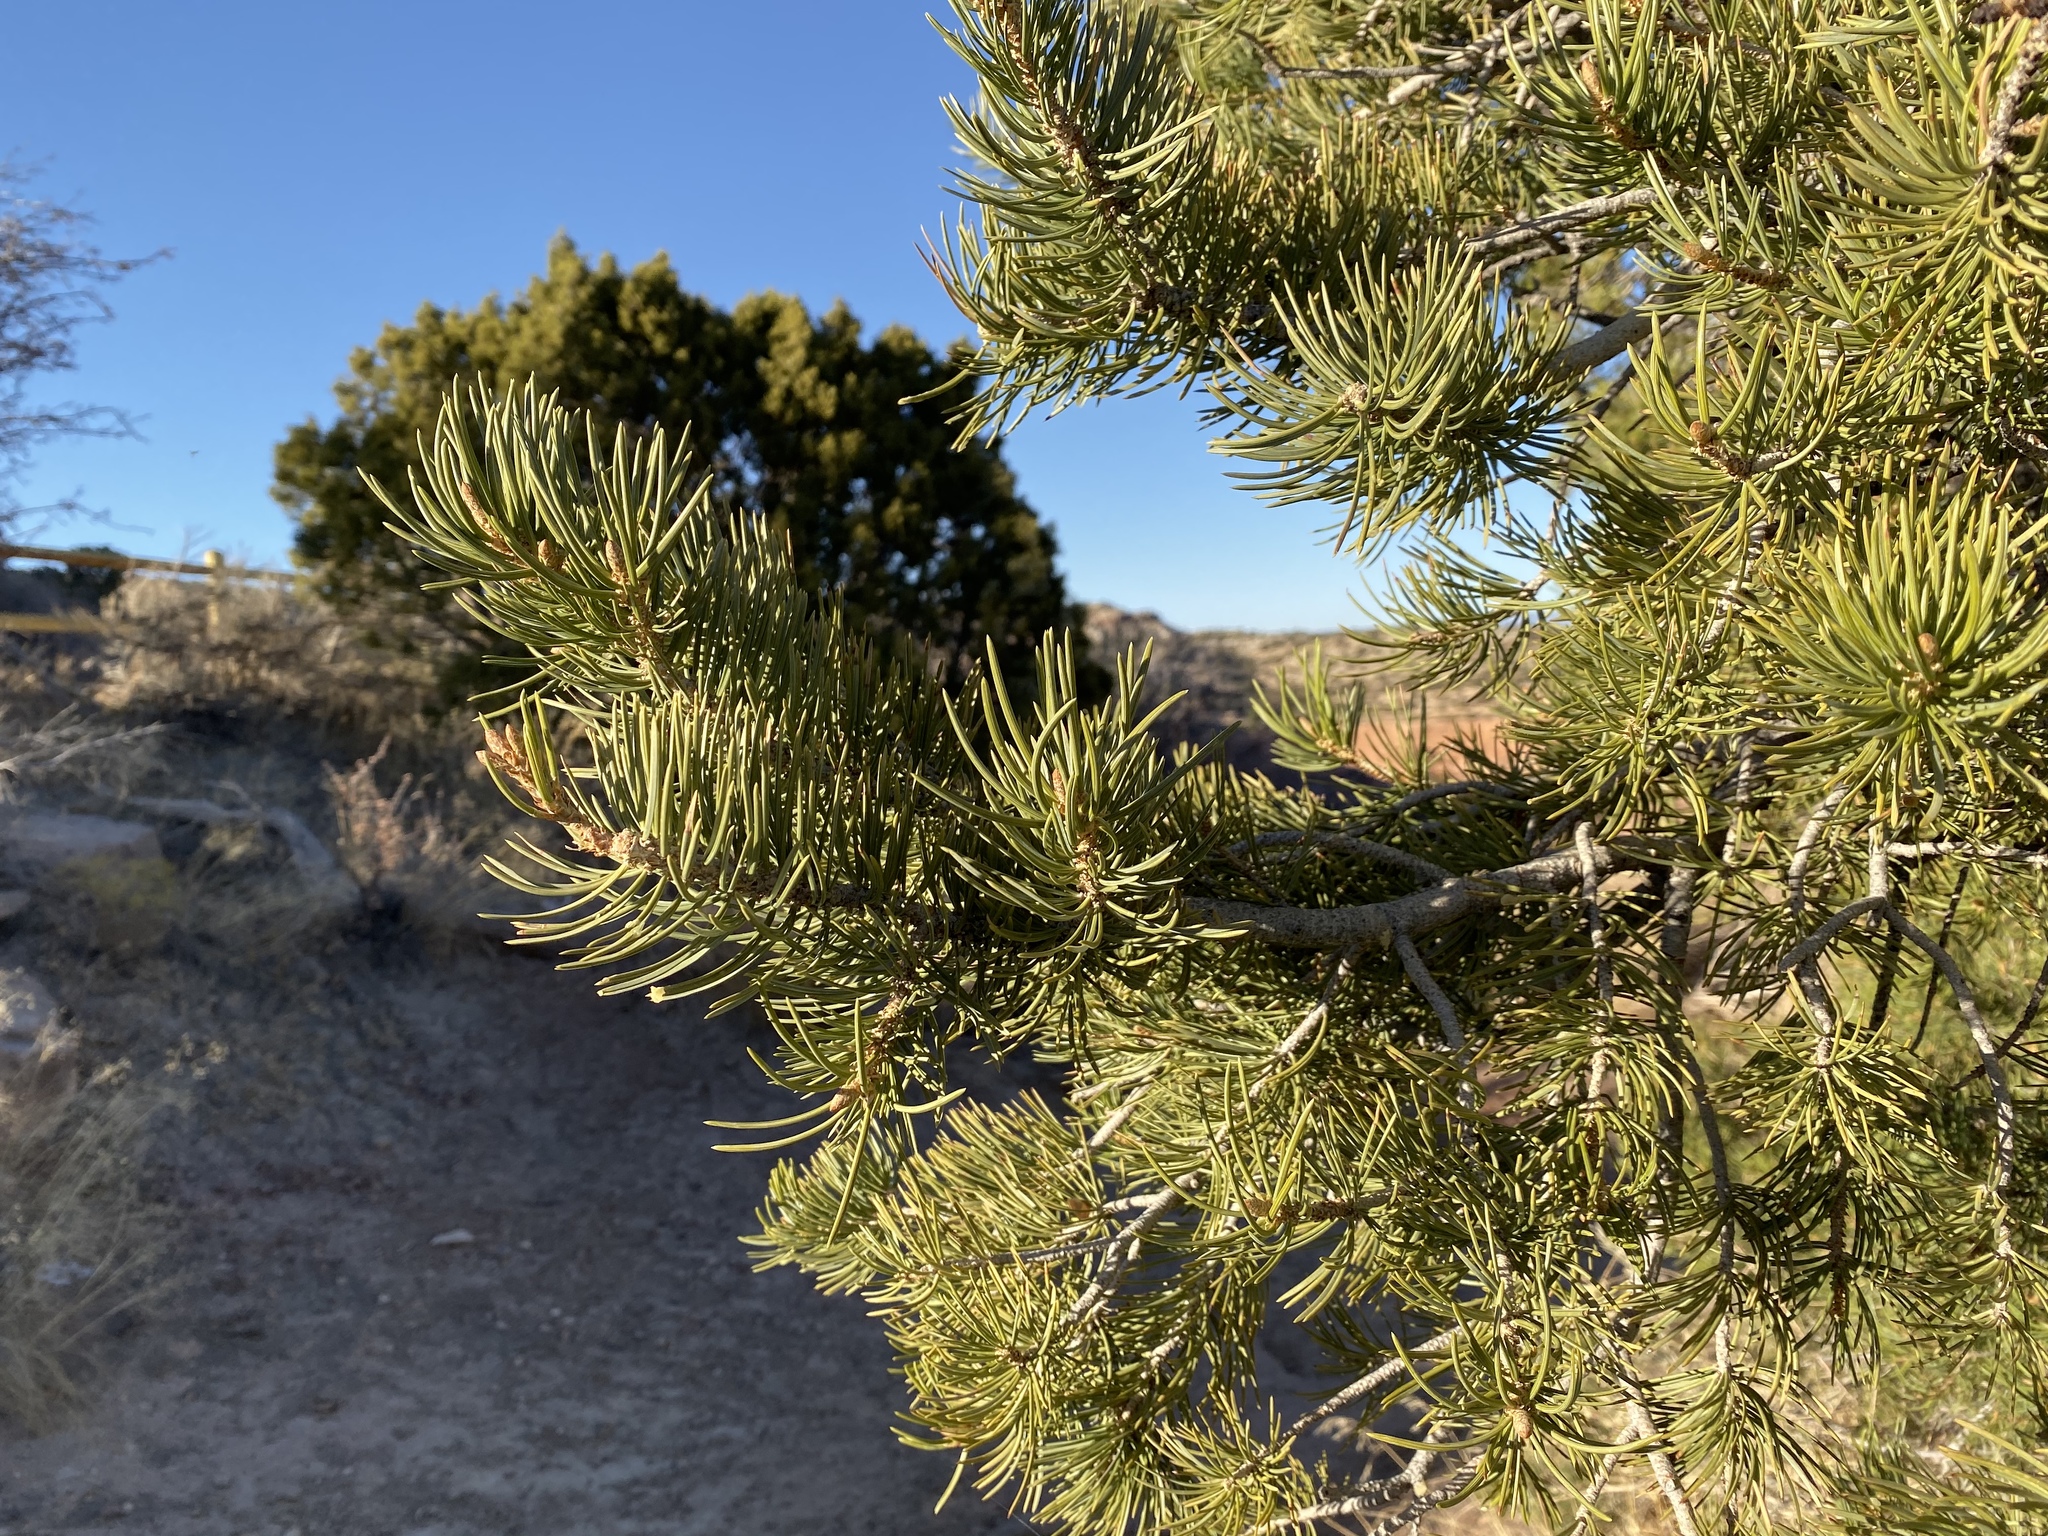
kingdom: Plantae
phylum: Tracheophyta
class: Pinopsida
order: Pinales
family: Pinaceae
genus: Pinus
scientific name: Pinus edulis
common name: Colorado pinyon
